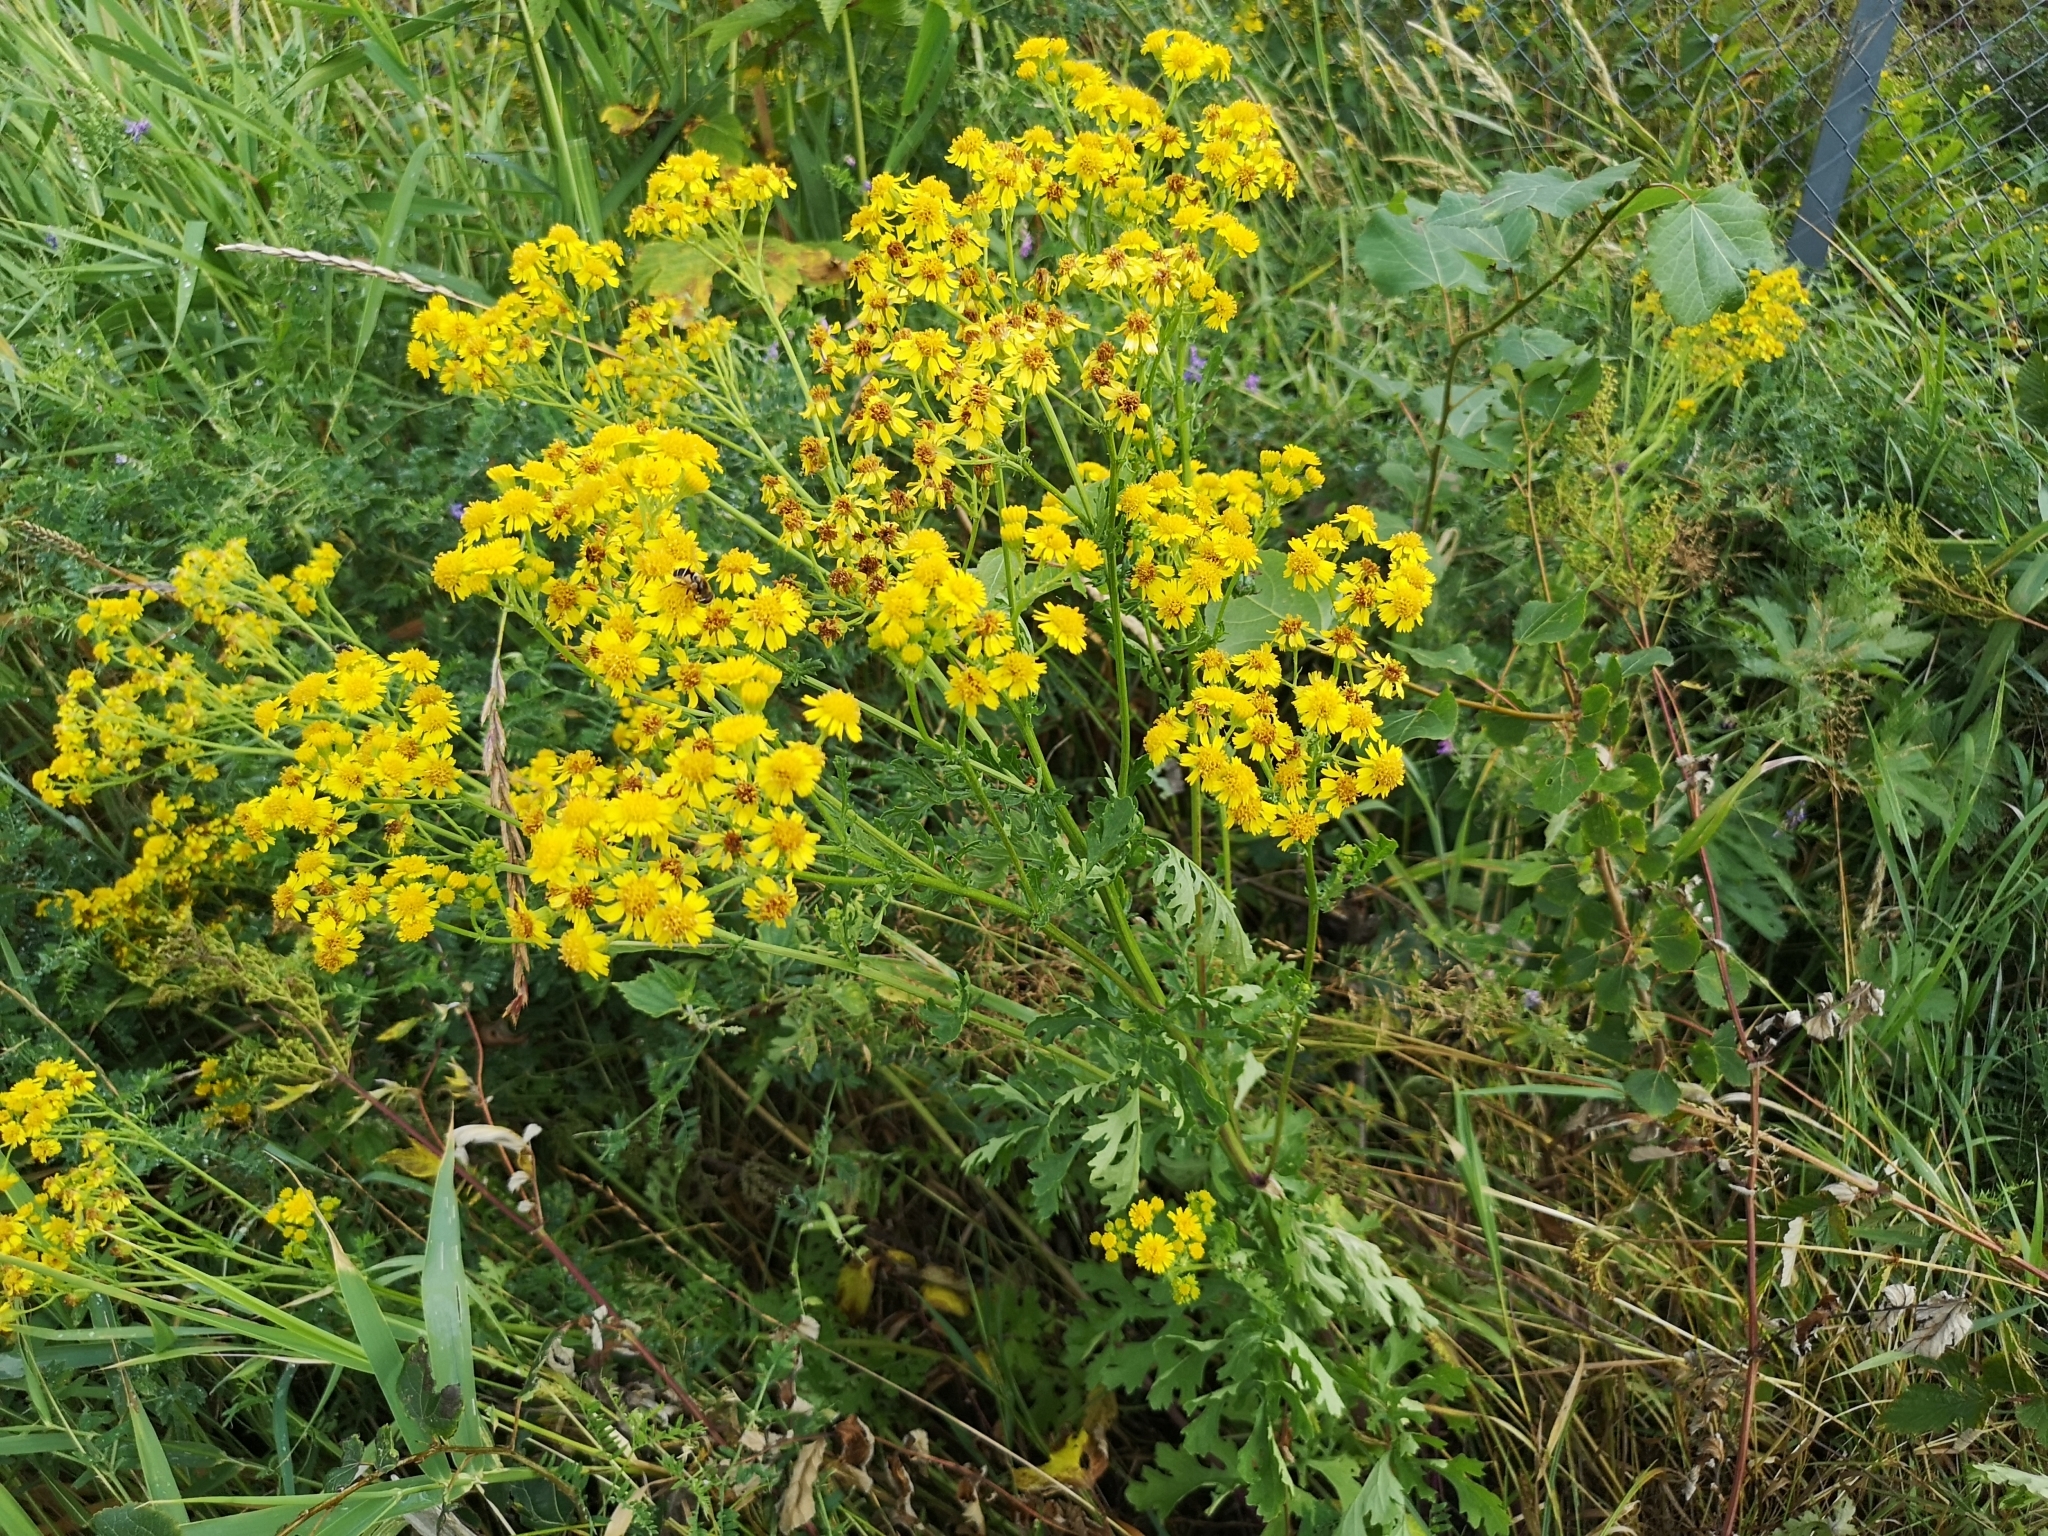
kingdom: Plantae
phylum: Tracheophyta
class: Magnoliopsida
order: Asterales
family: Asteraceae
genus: Jacobaea
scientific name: Jacobaea vulgaris
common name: Stinking willie
